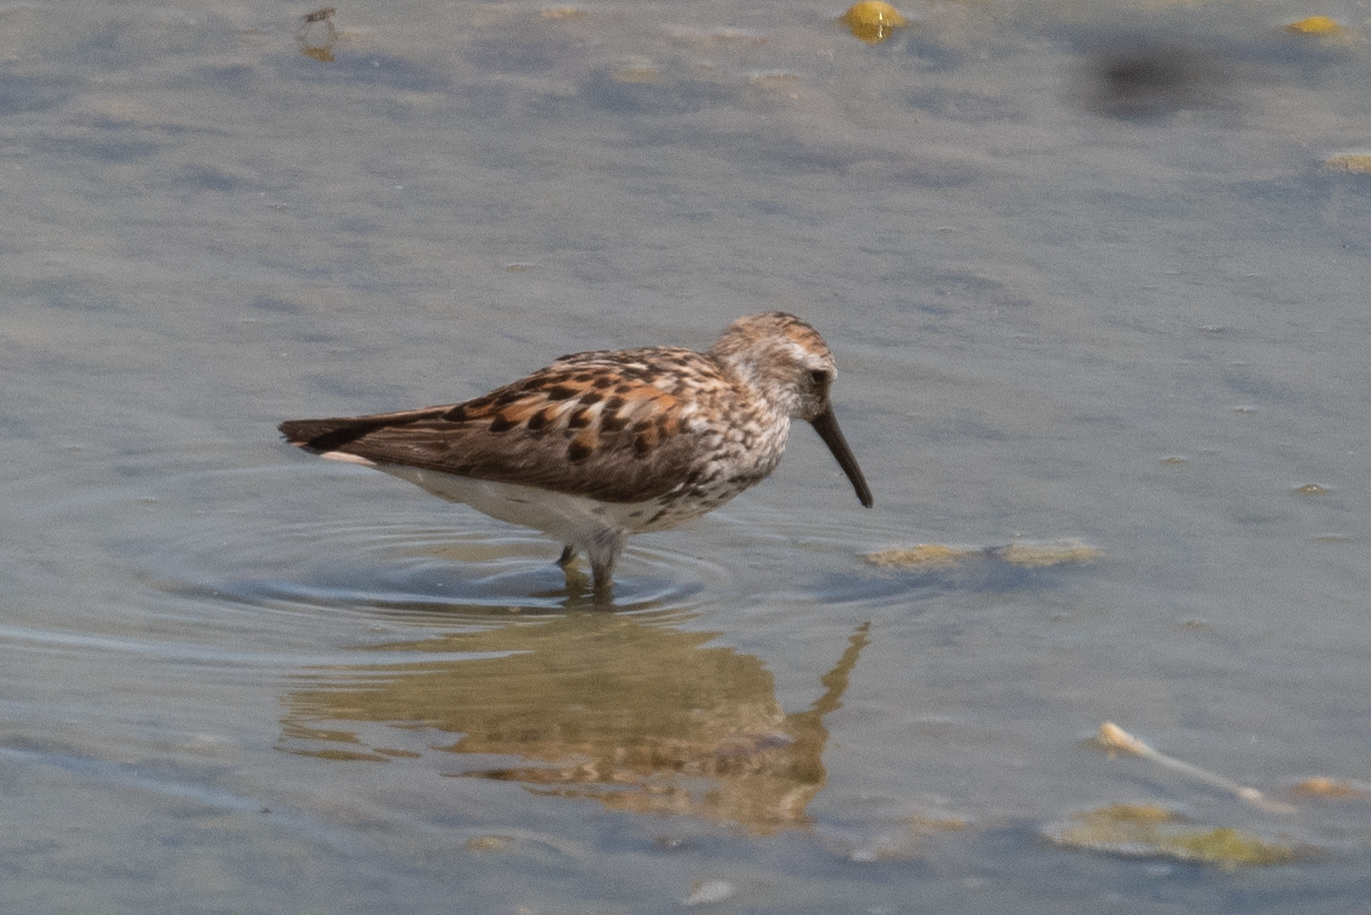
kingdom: Animalia
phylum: Chordata
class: Aves
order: Charadriiformes
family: Scolopacidae
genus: Calidris
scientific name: Calidris mauri
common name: Western sandpiper
